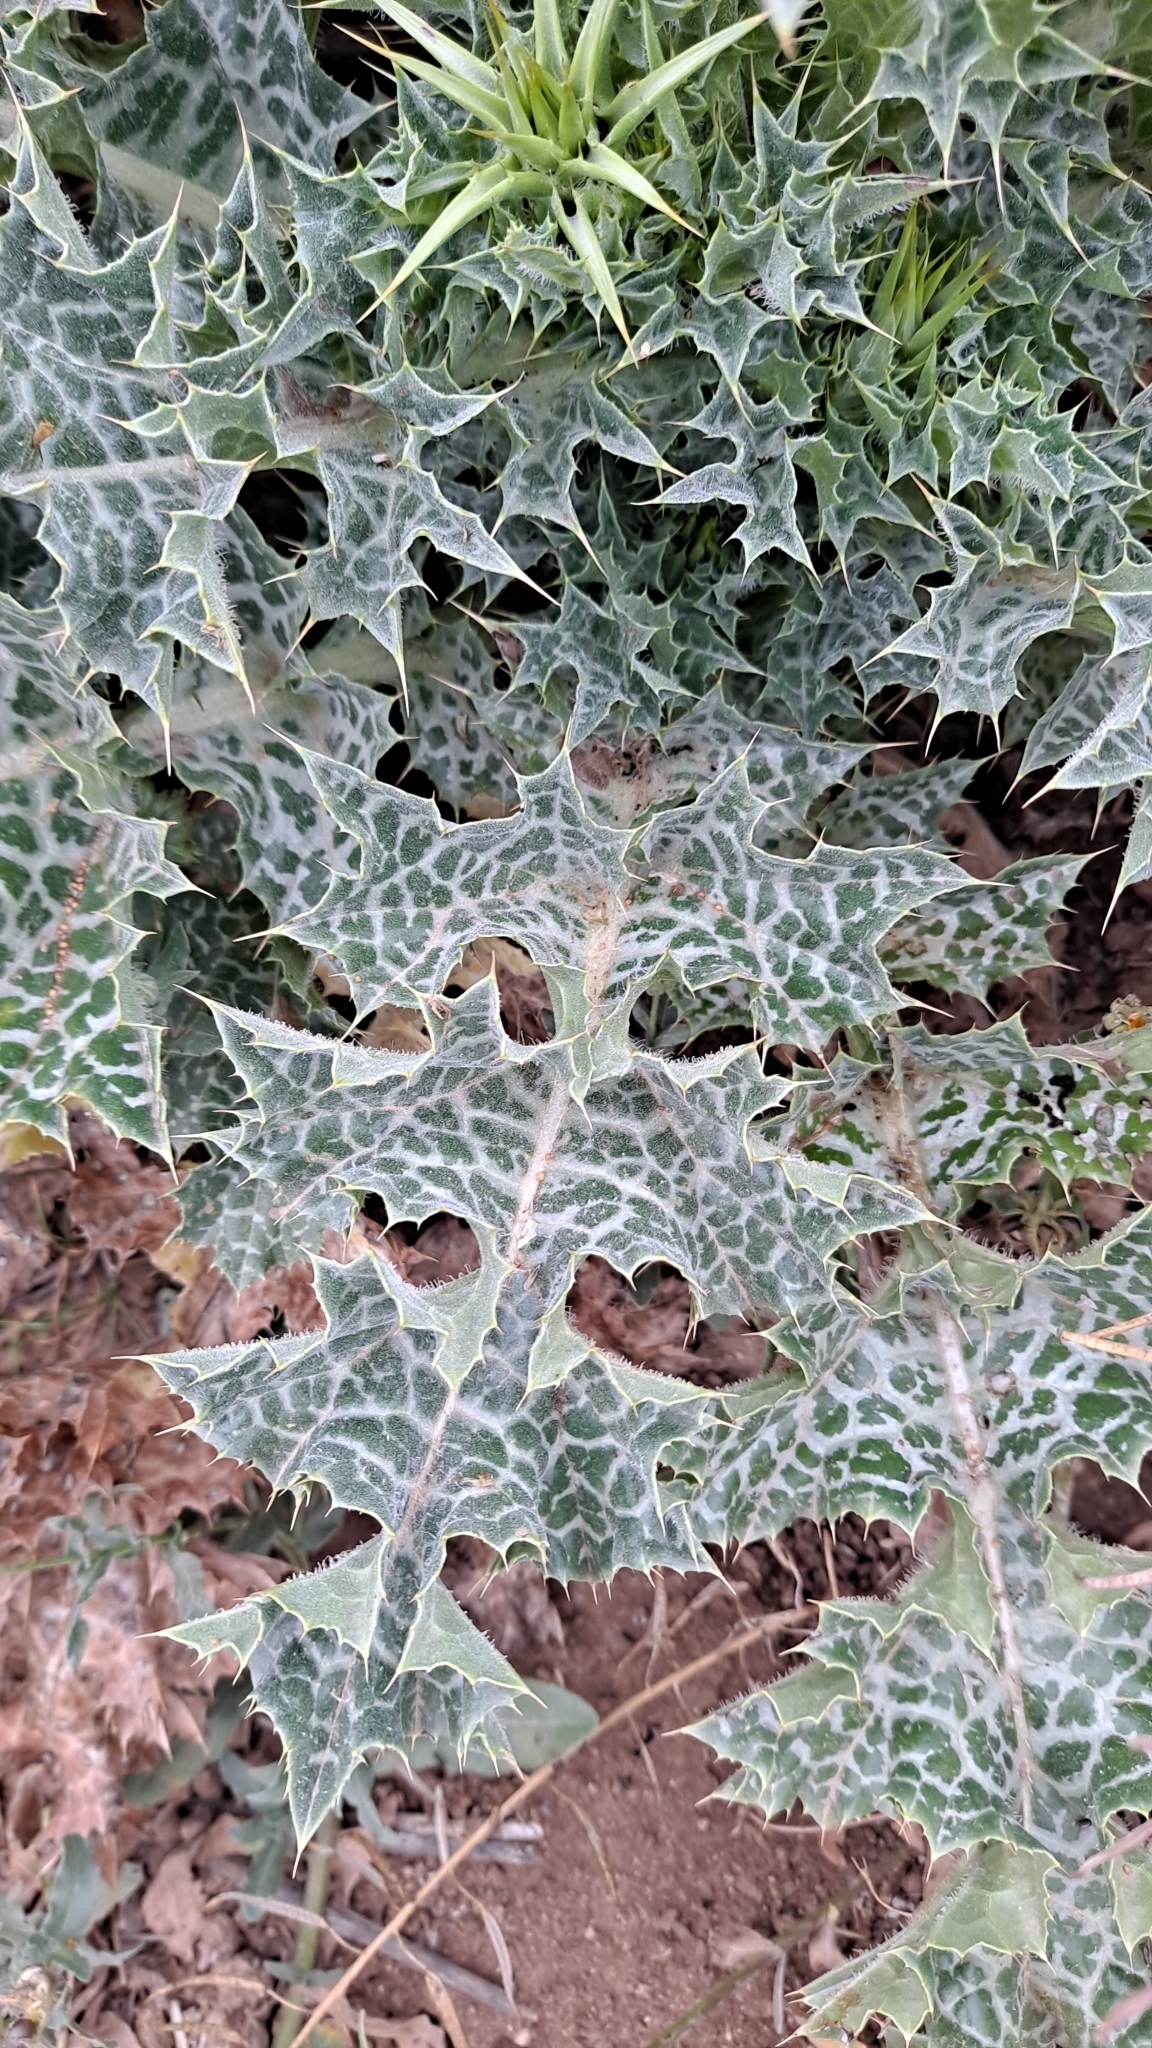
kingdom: Plantae
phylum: Tracheophyta
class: Magnoliopsida
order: Asterales
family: Asteraceae
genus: Silybum
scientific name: Silybum marianum
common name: Milk thistle
